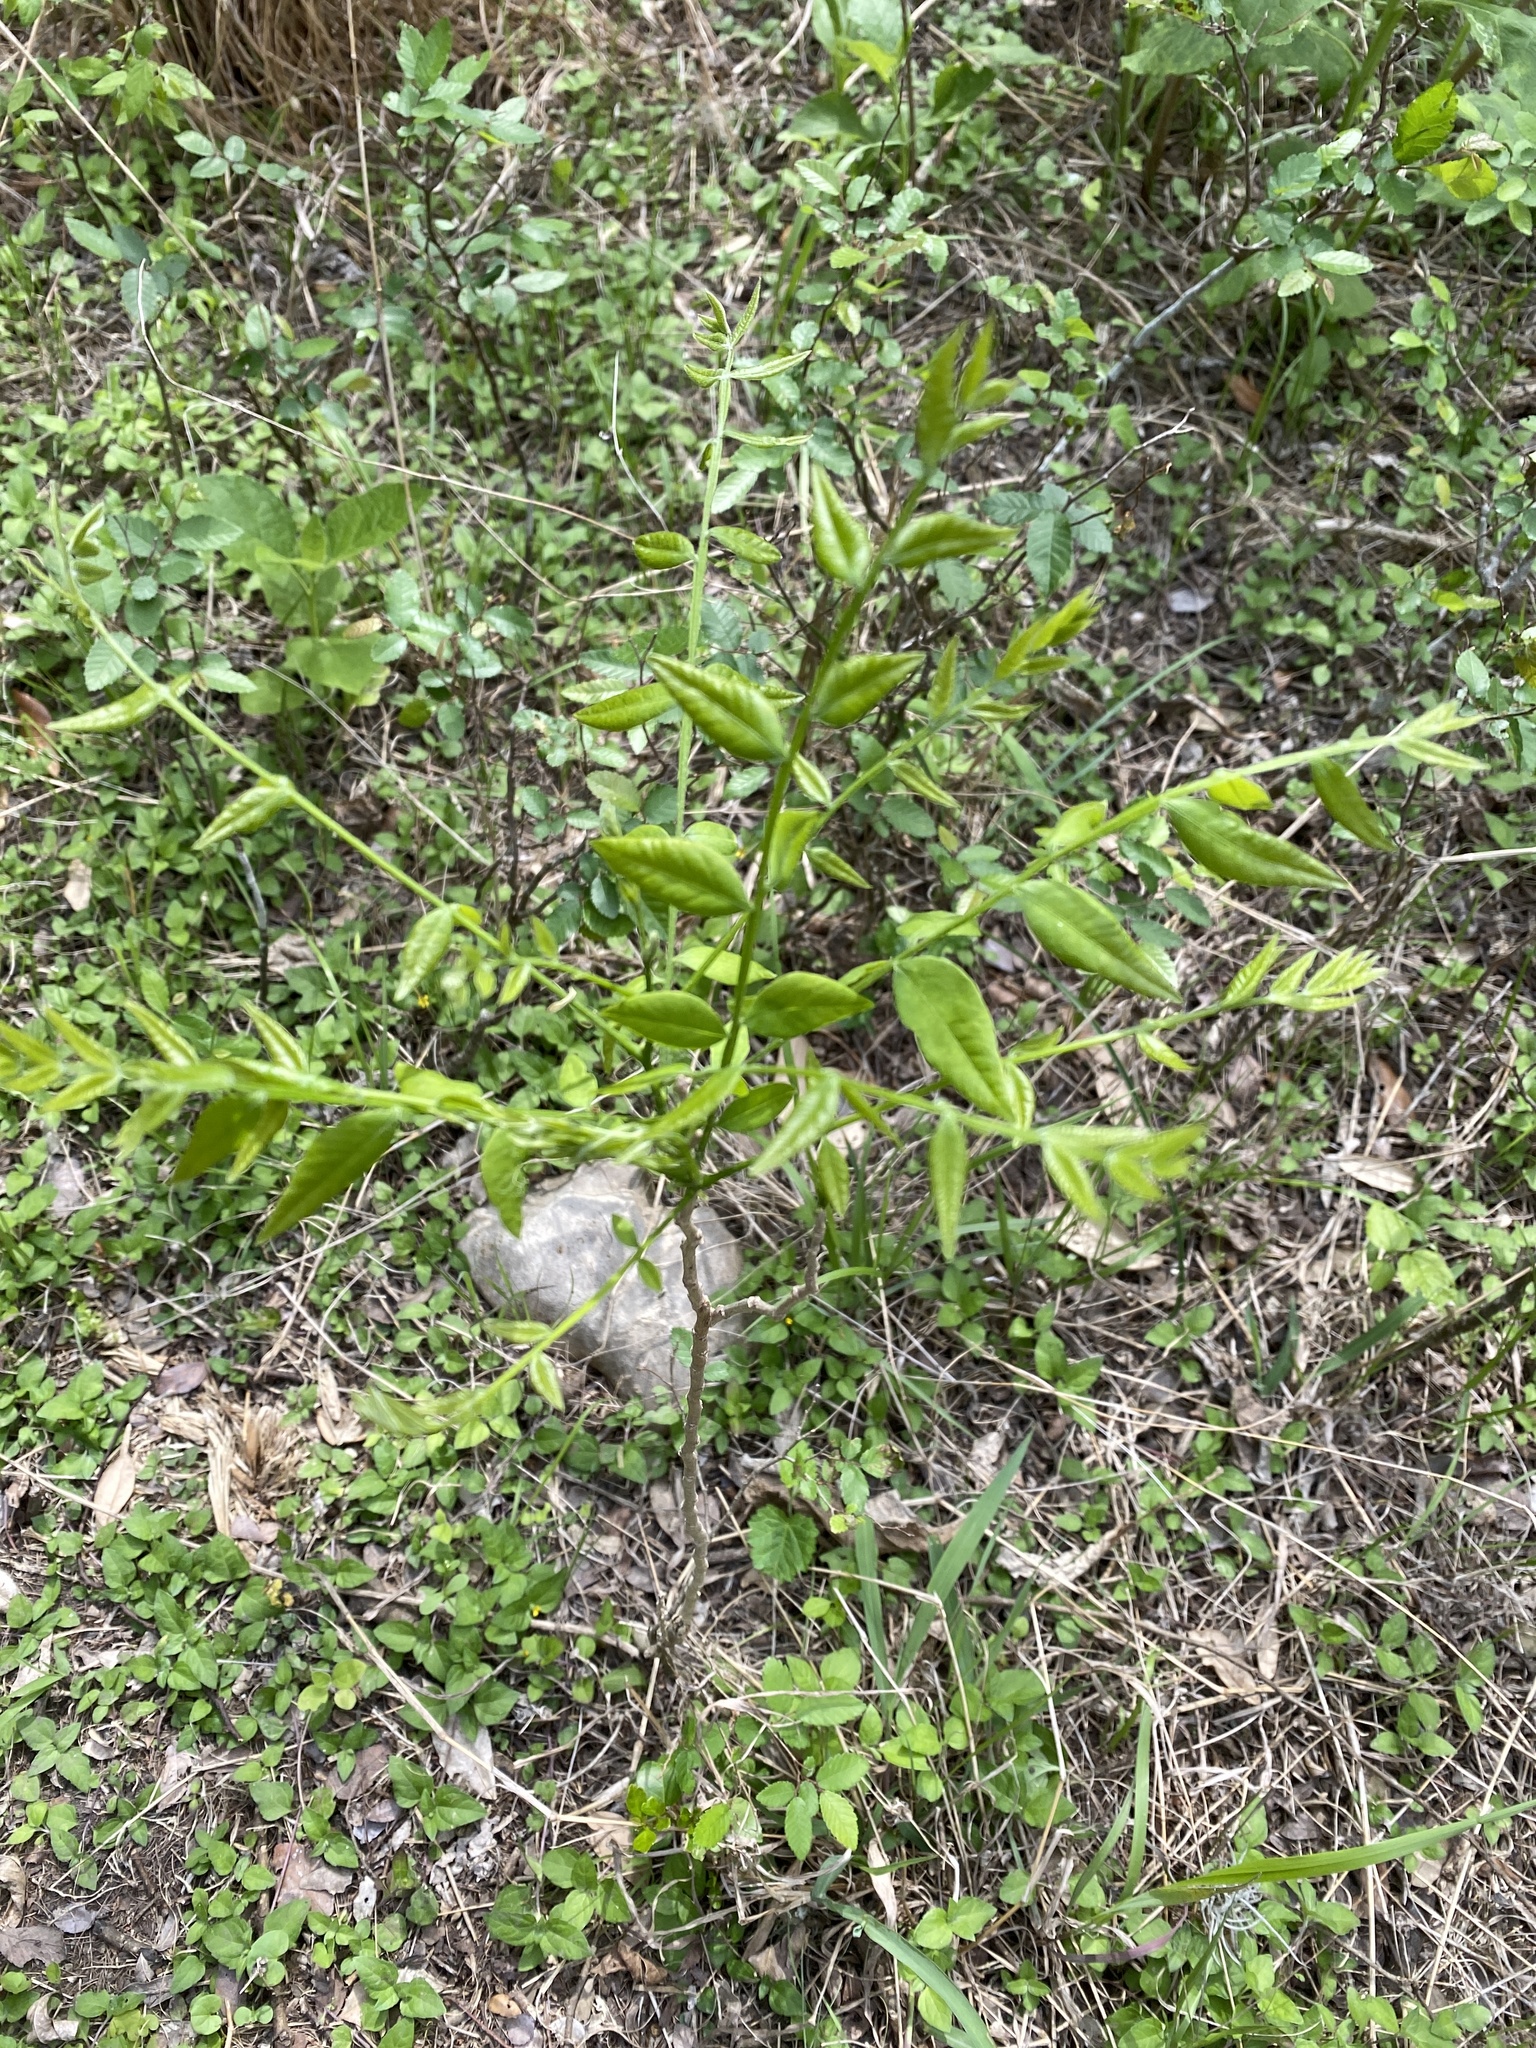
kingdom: Plantae
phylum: Tracheophyta
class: Magnoliopsida
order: Sapindales
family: Sapindaceae
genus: Sapindus
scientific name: Sapindus drummondii
